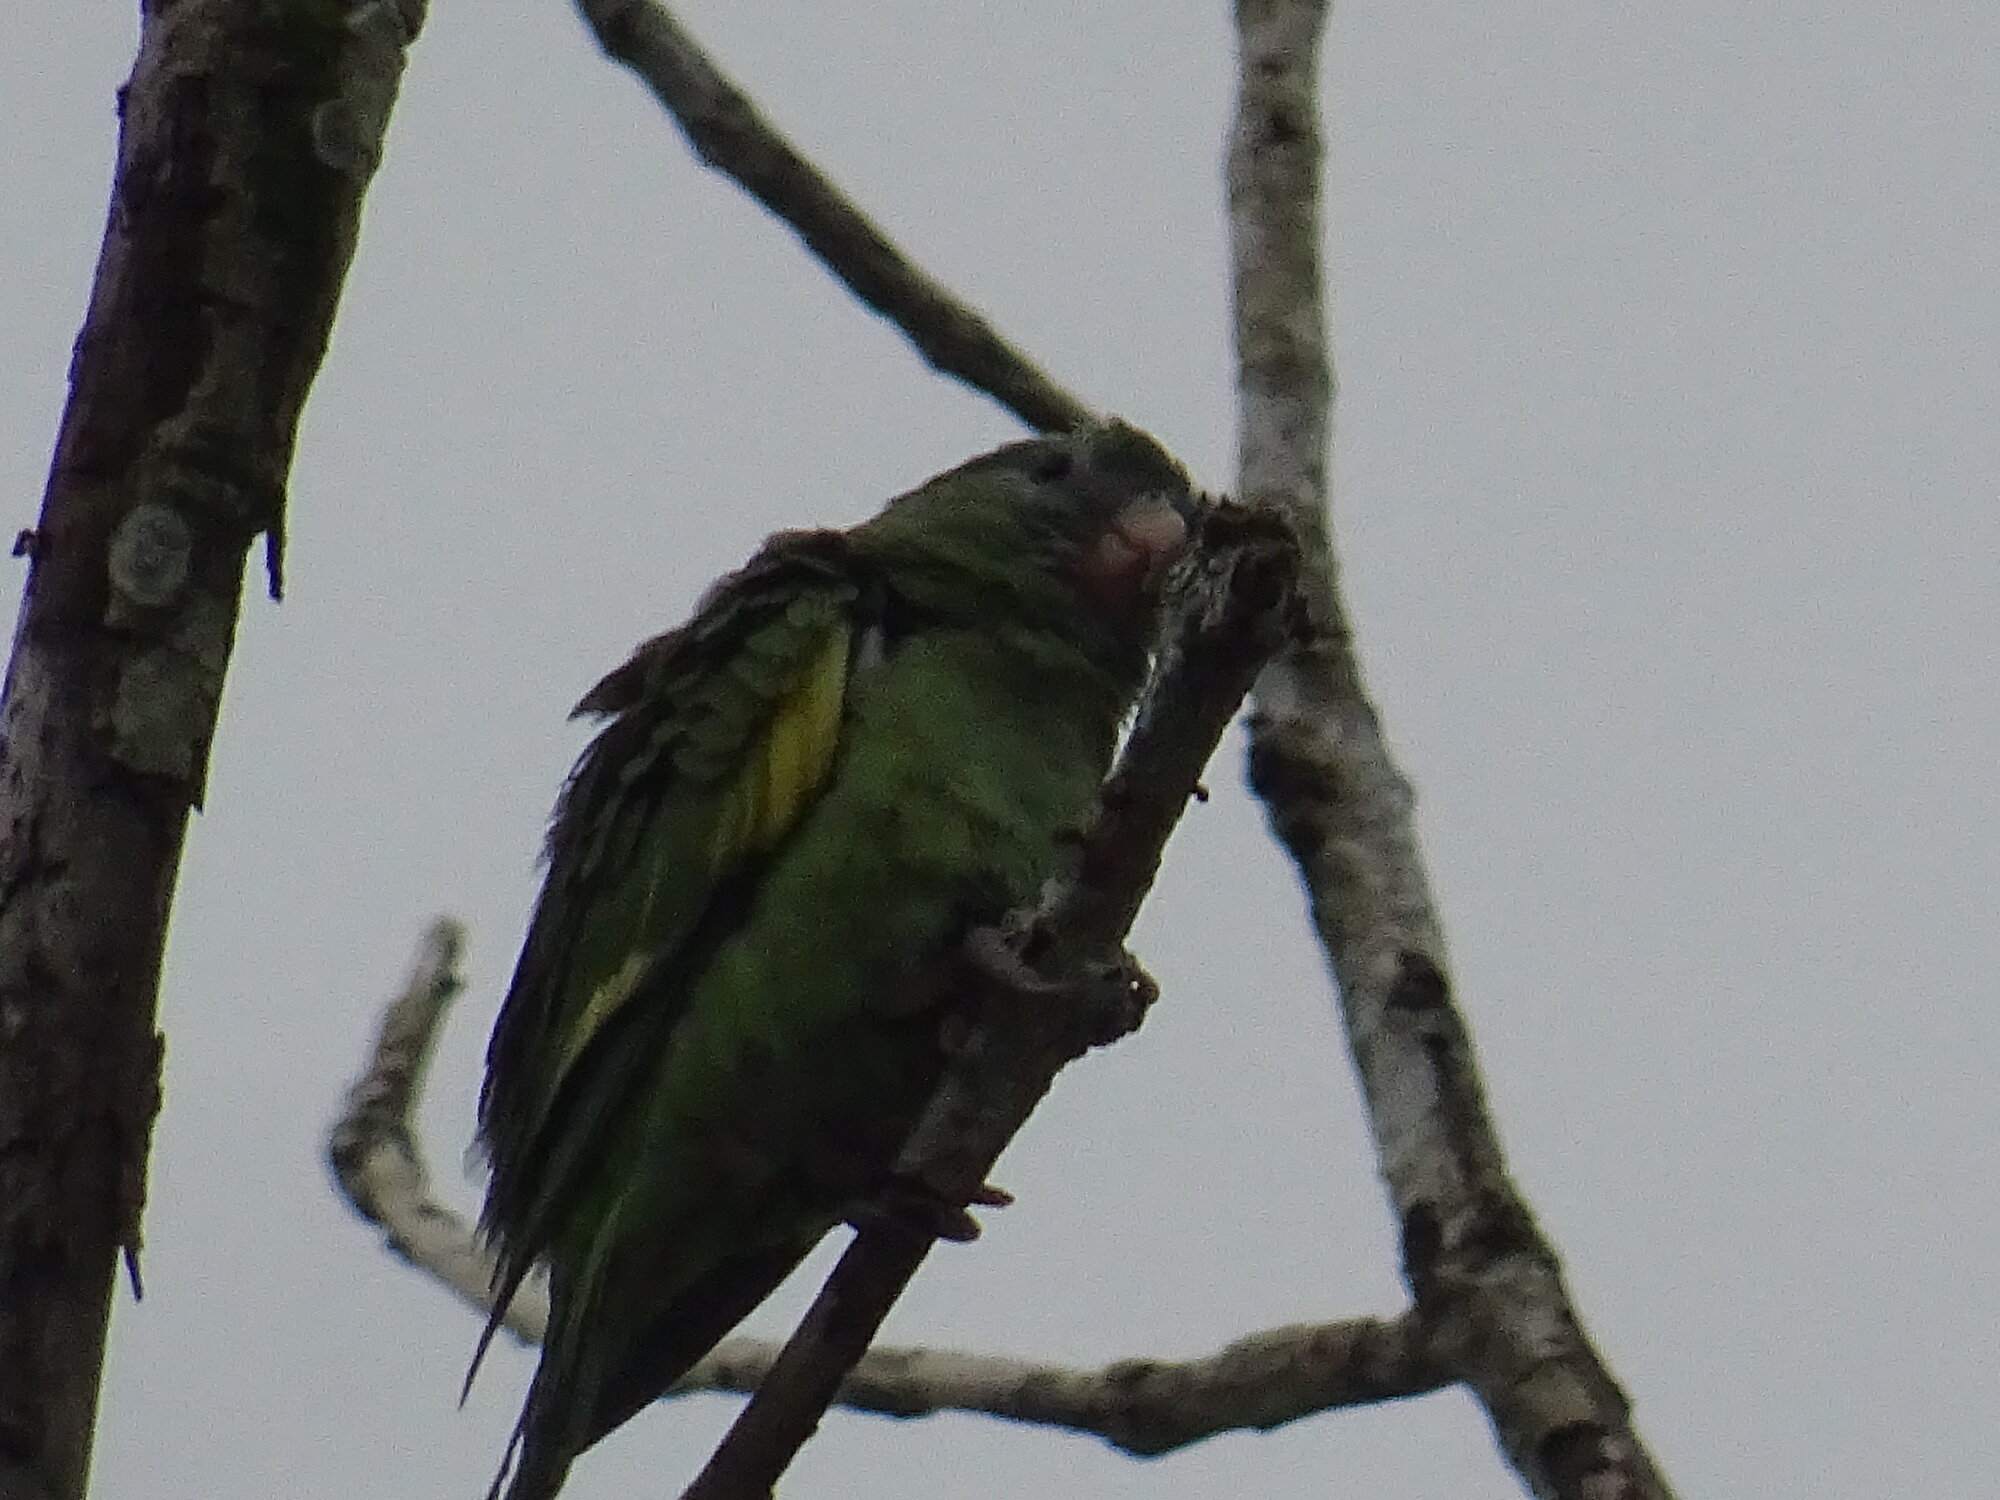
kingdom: Animalia
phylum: Chordata
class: Aves
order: Psittaciformes
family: Psittacidae
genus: Brotogeris
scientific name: Brotogeris versicolurus
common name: White-winged parakeet
